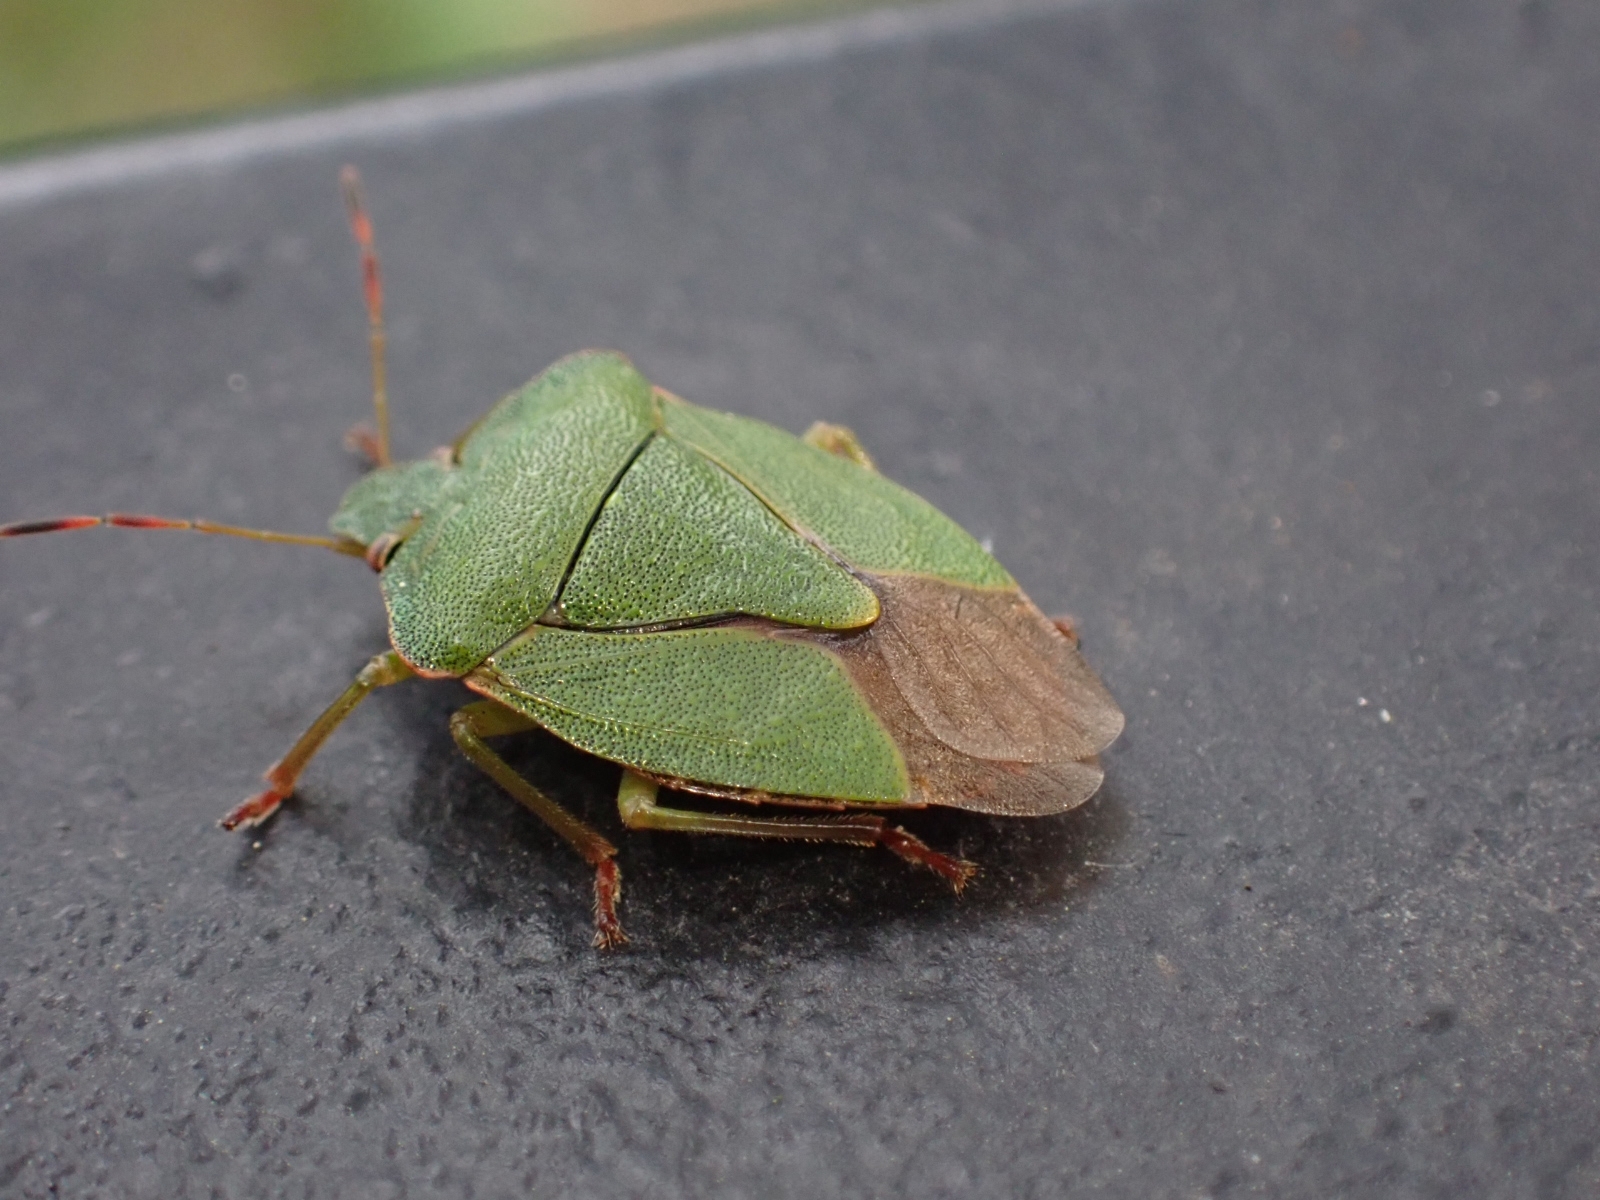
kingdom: Animalia
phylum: Arthropoda
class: Insecta
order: Hemiptera
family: Pentatomidae
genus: Palomena
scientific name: Palomena prasina
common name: Green shieldbug
